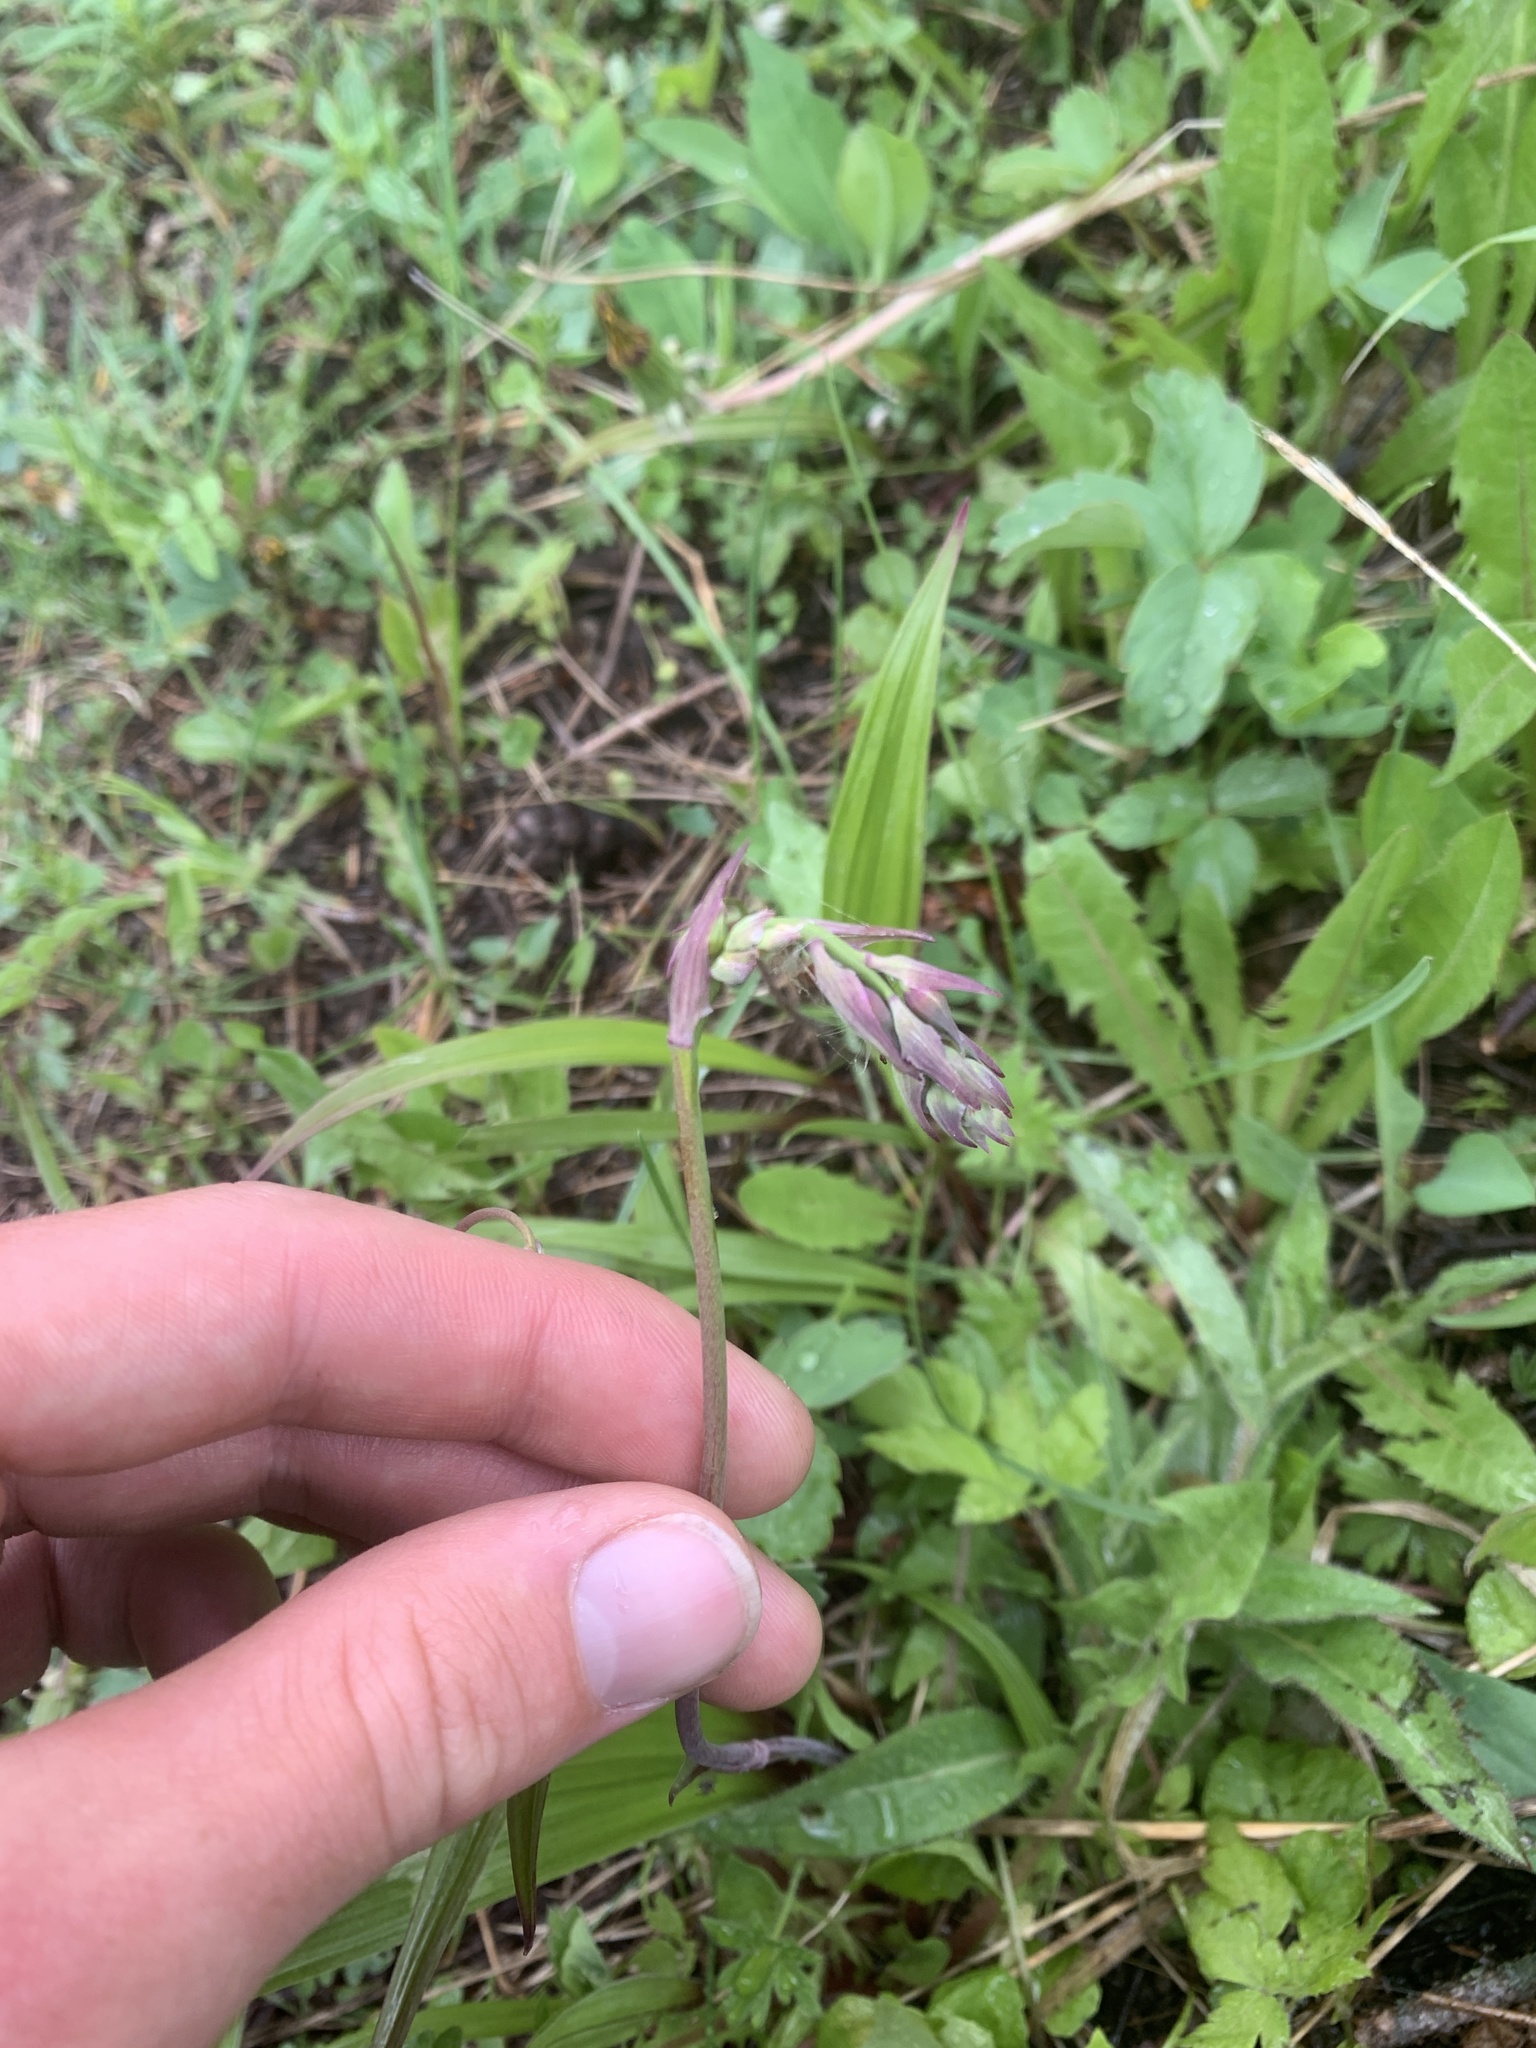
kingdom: Plantae
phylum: Tracheophyta
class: Liliopsida
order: Liliales
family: Melanthiaceae
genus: Anticlea
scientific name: Anticlea occidentalis
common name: Bronze-bells
